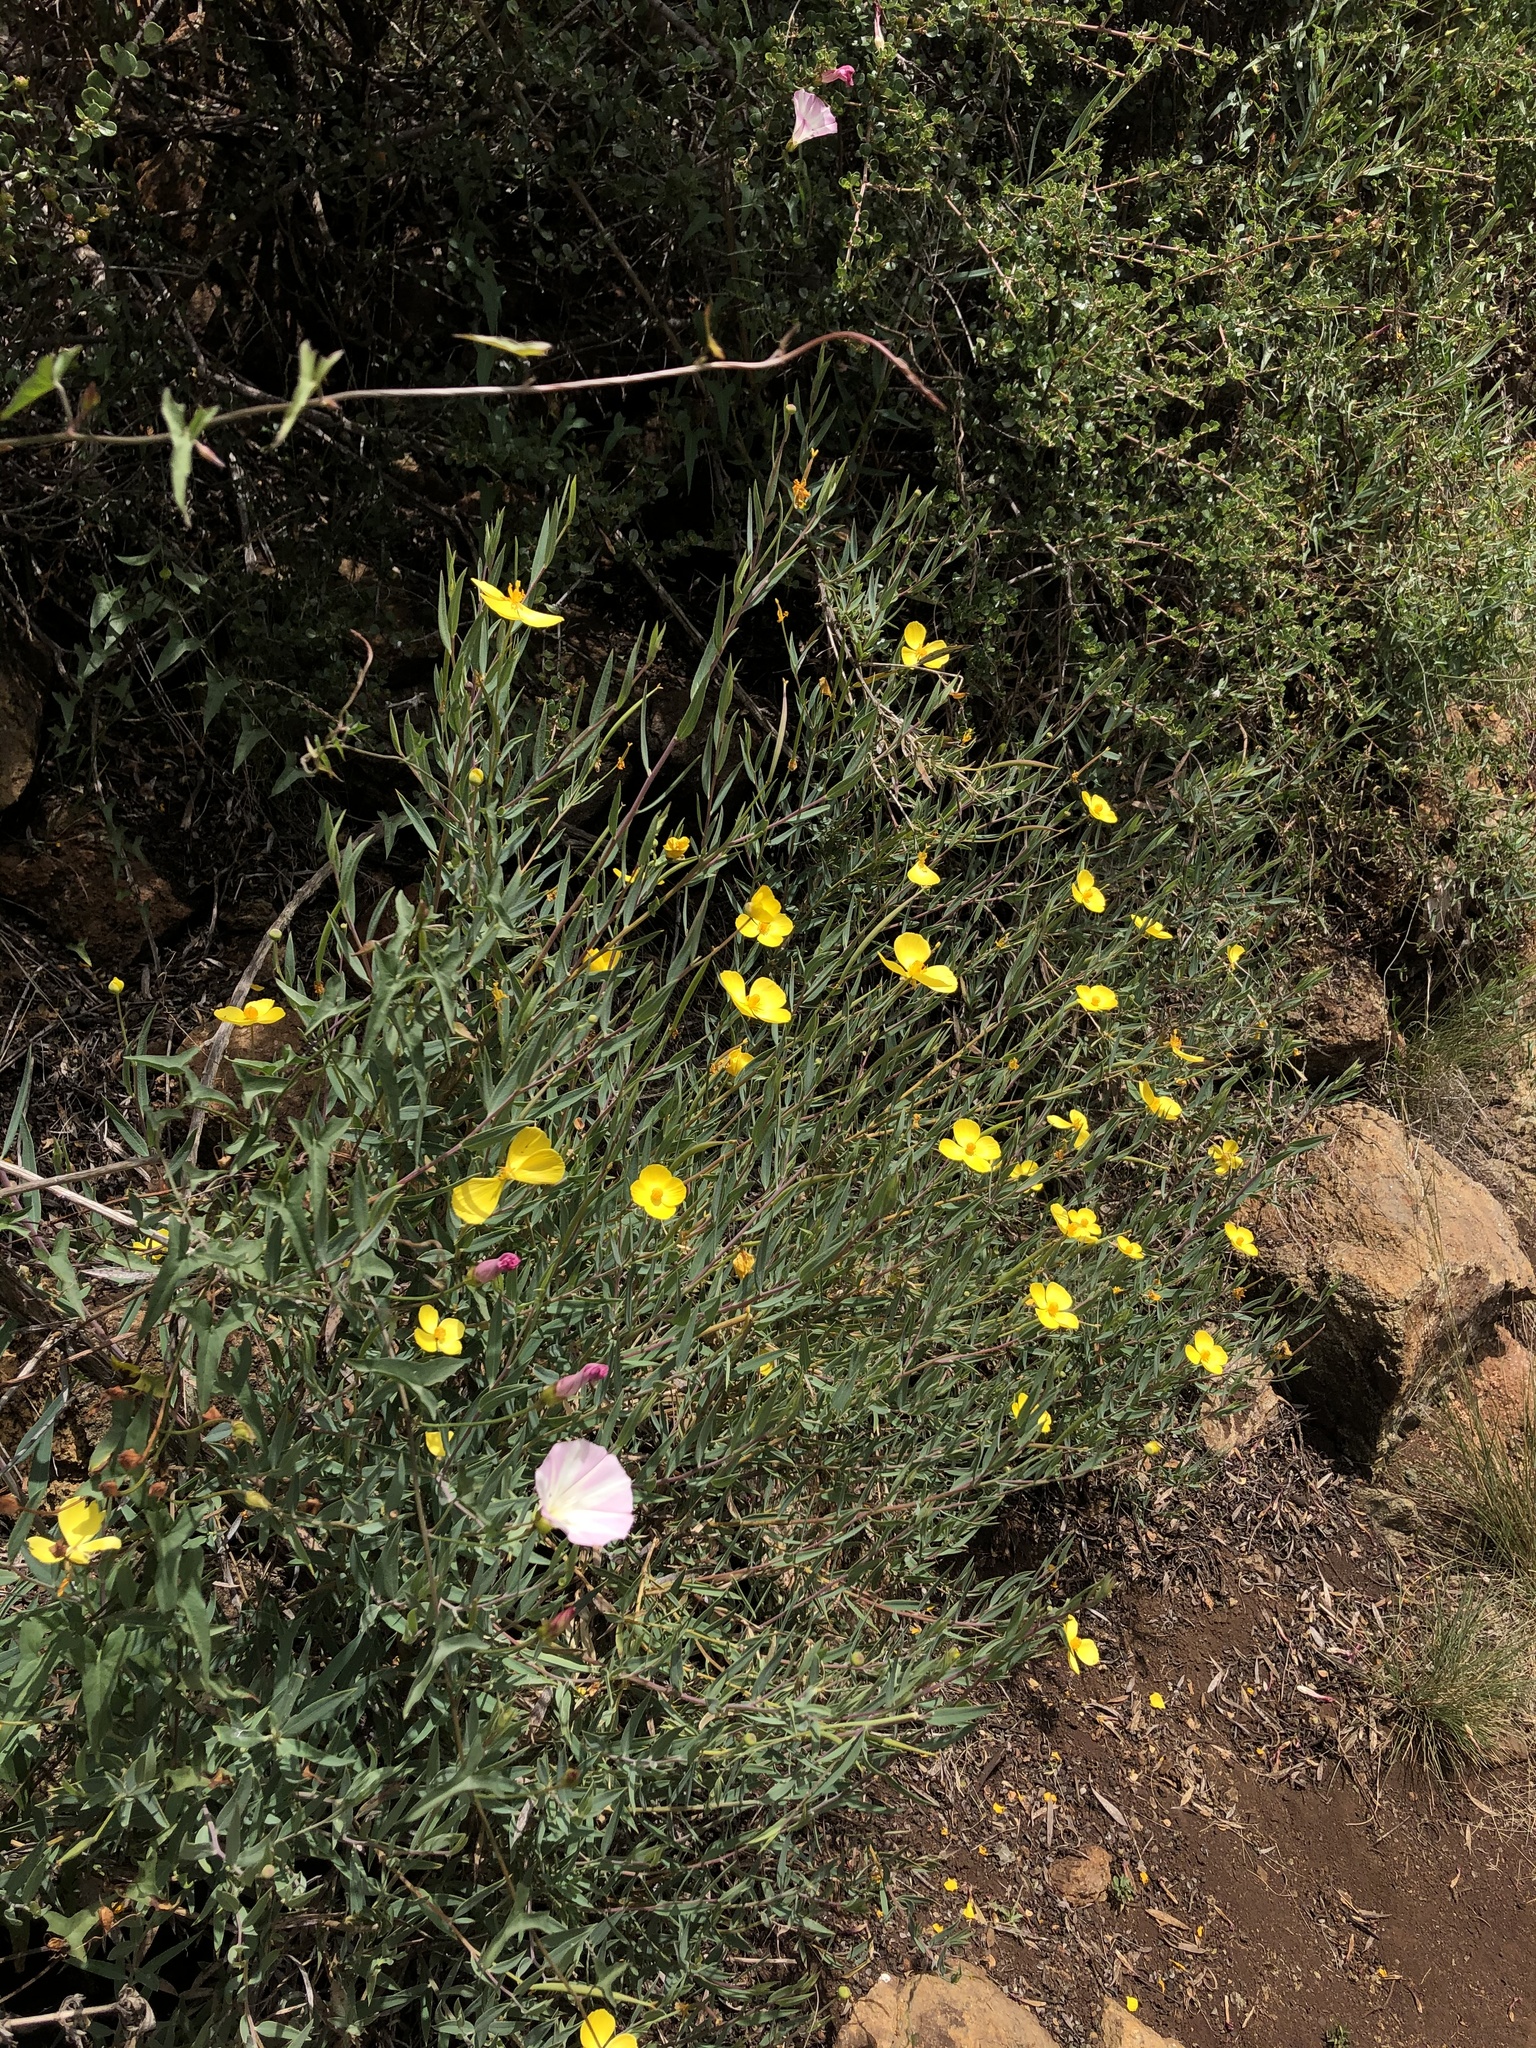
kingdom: Plantae
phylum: Tracheophyta
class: Magnoliopsida
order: Ranunculales
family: Papaveraceae
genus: Dendromecon
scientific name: Dendromecon rigida
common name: Tree poppy
